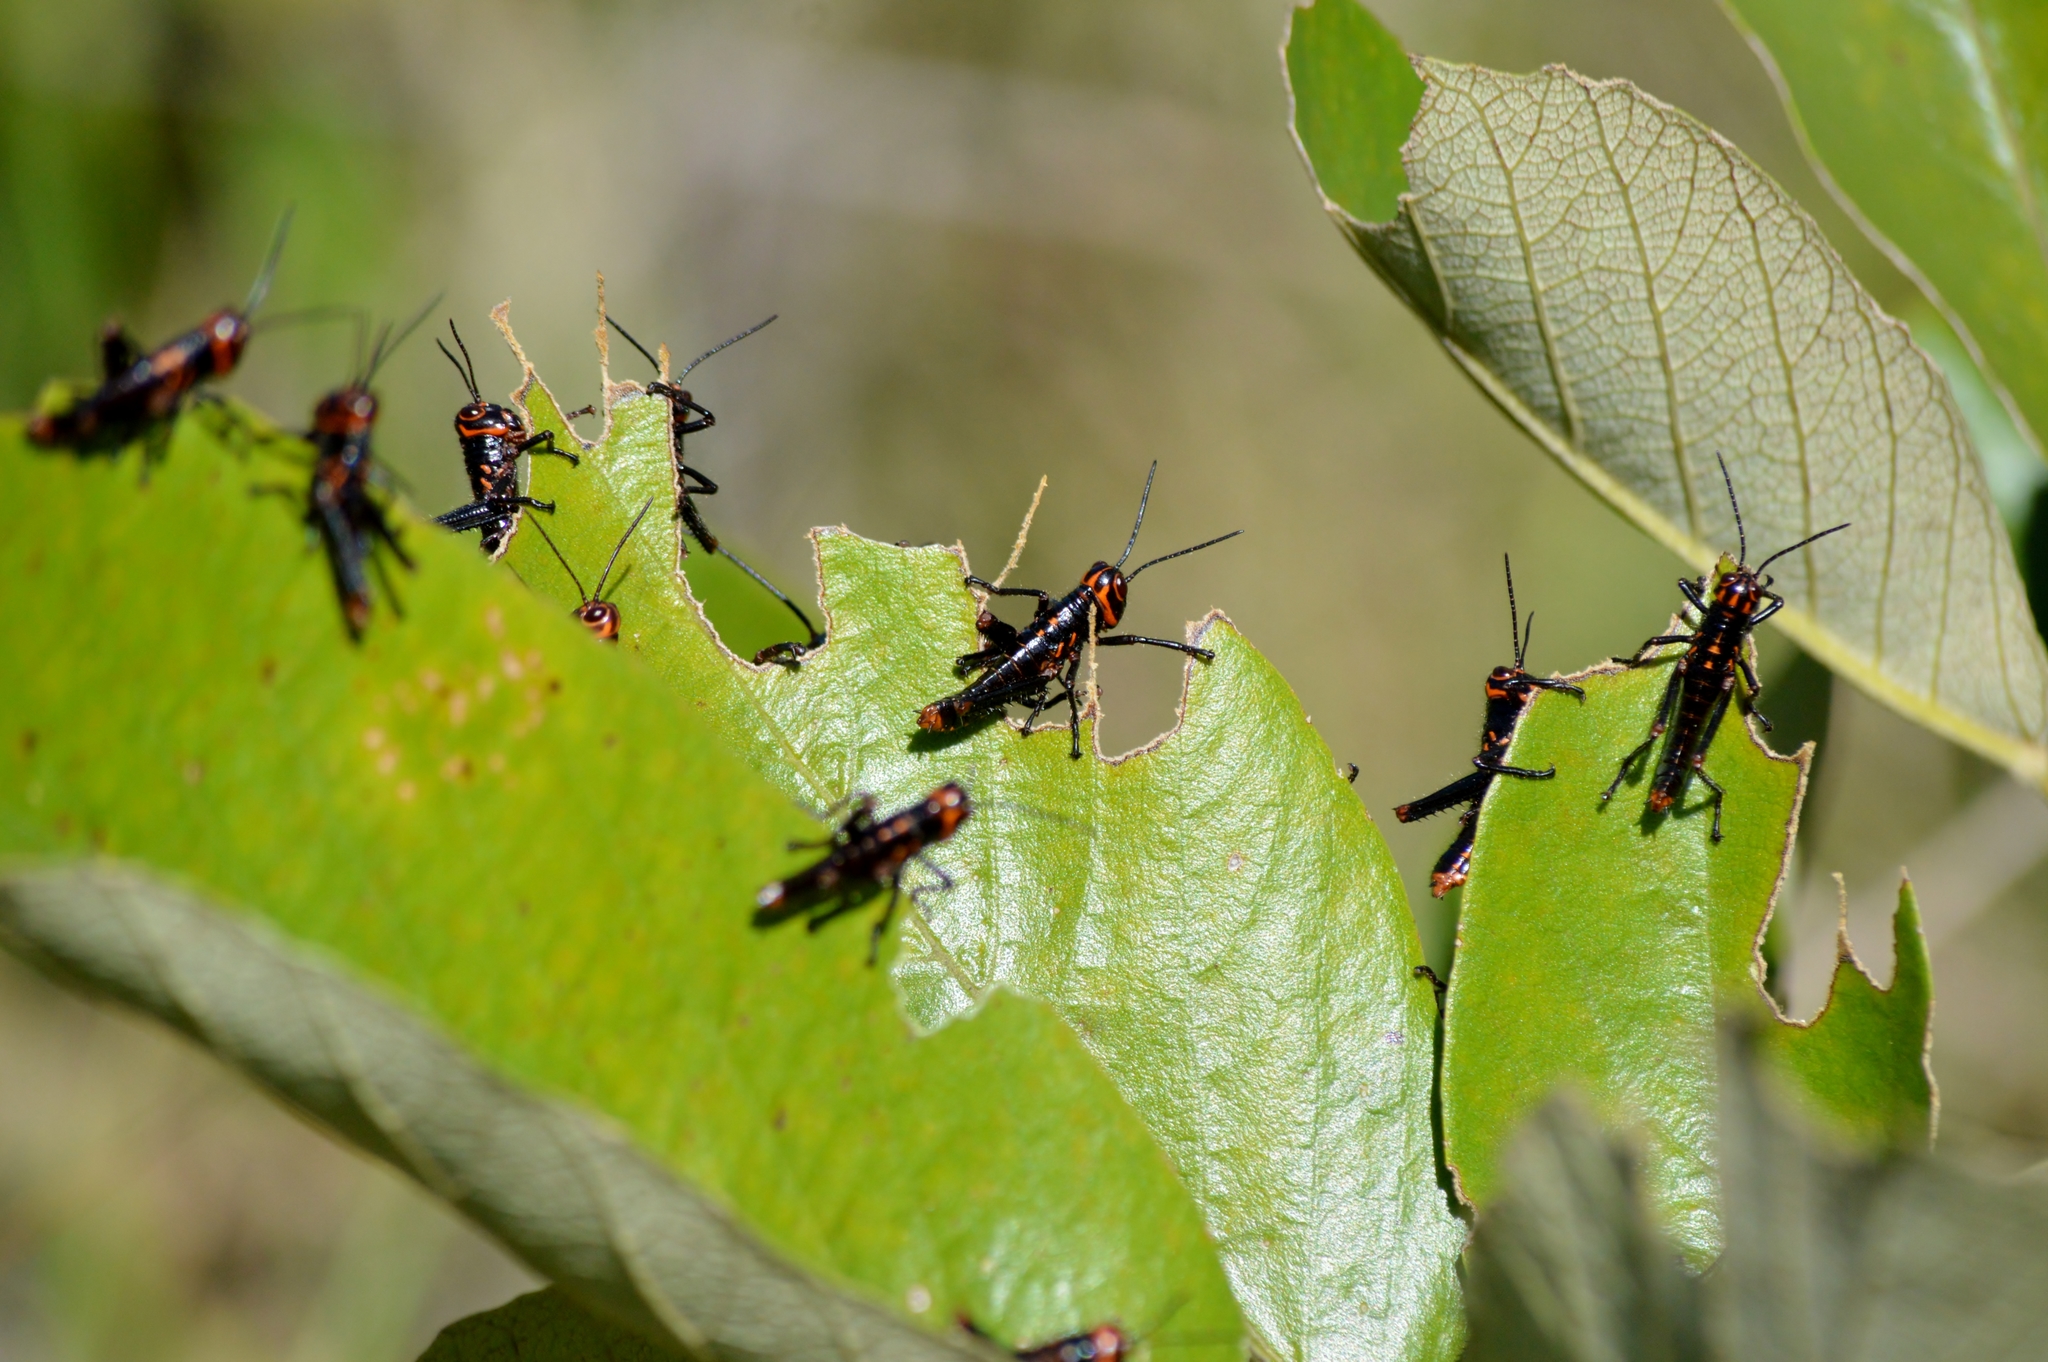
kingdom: Animalia
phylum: Arthropoda
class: Insecta
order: Orthoptera
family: Romaleidae
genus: Tropidacris
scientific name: Tropidacris collaris
